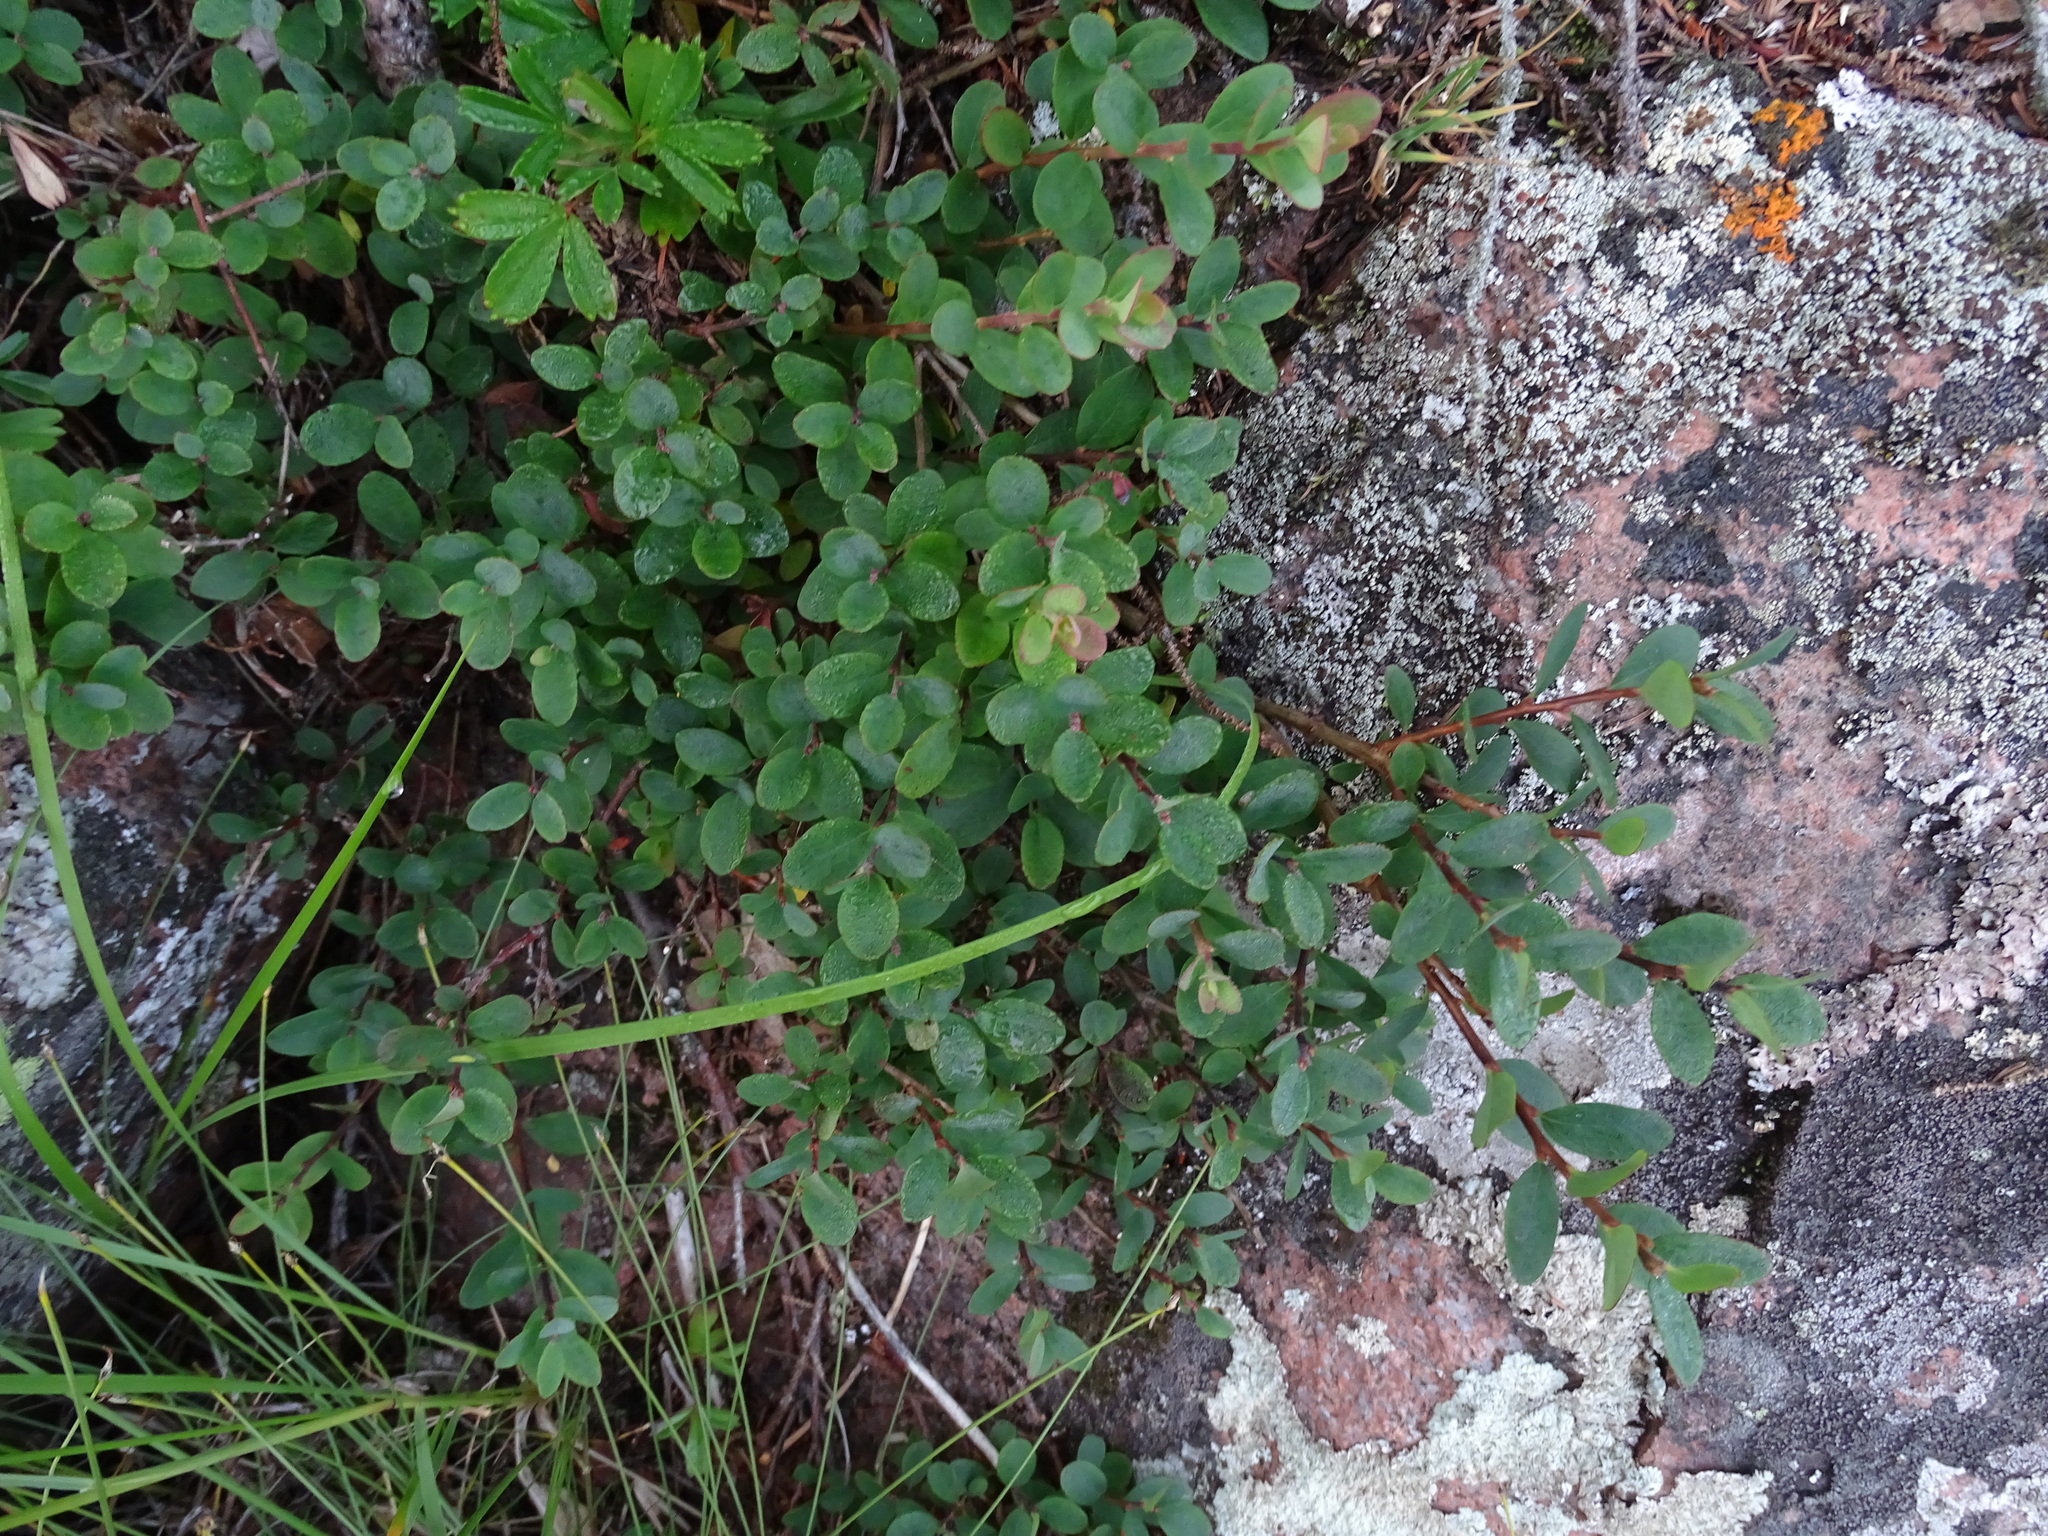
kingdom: Plantae
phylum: Tracheophyta
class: Magnoliopsida
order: Ericales
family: Ericaceae
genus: Vaccinium
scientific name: Vaccinium uliginosum
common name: Bog bilberry
